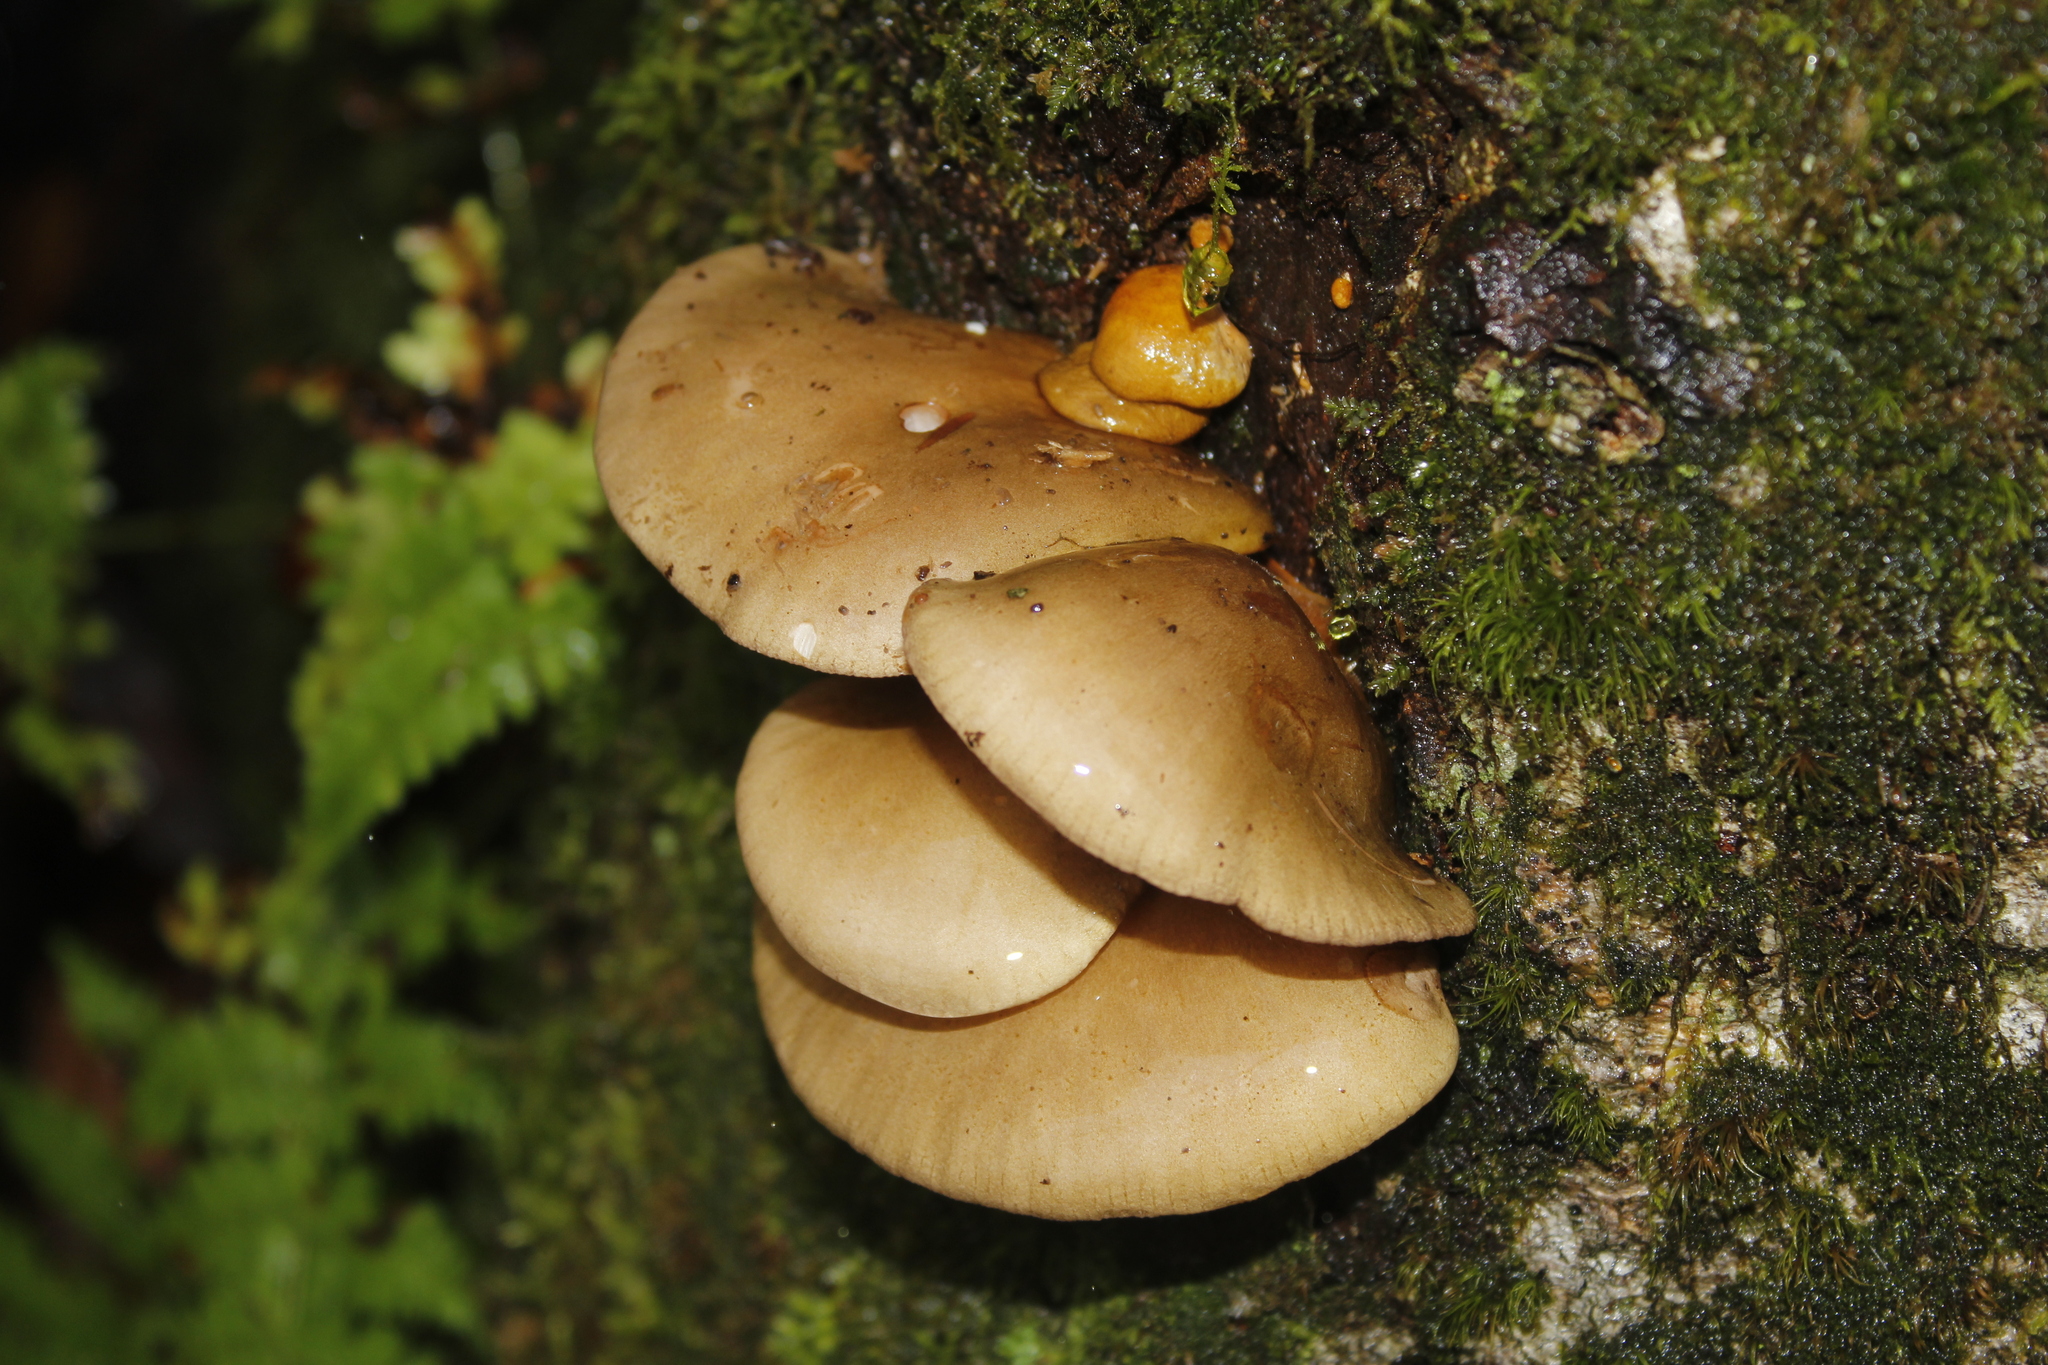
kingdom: Fungi
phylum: Basidiomycota
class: Agaricomycetes
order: Agaricales
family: Sarcomyxaceae
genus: Sarcomyxa
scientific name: Sarcomyxa serotina
